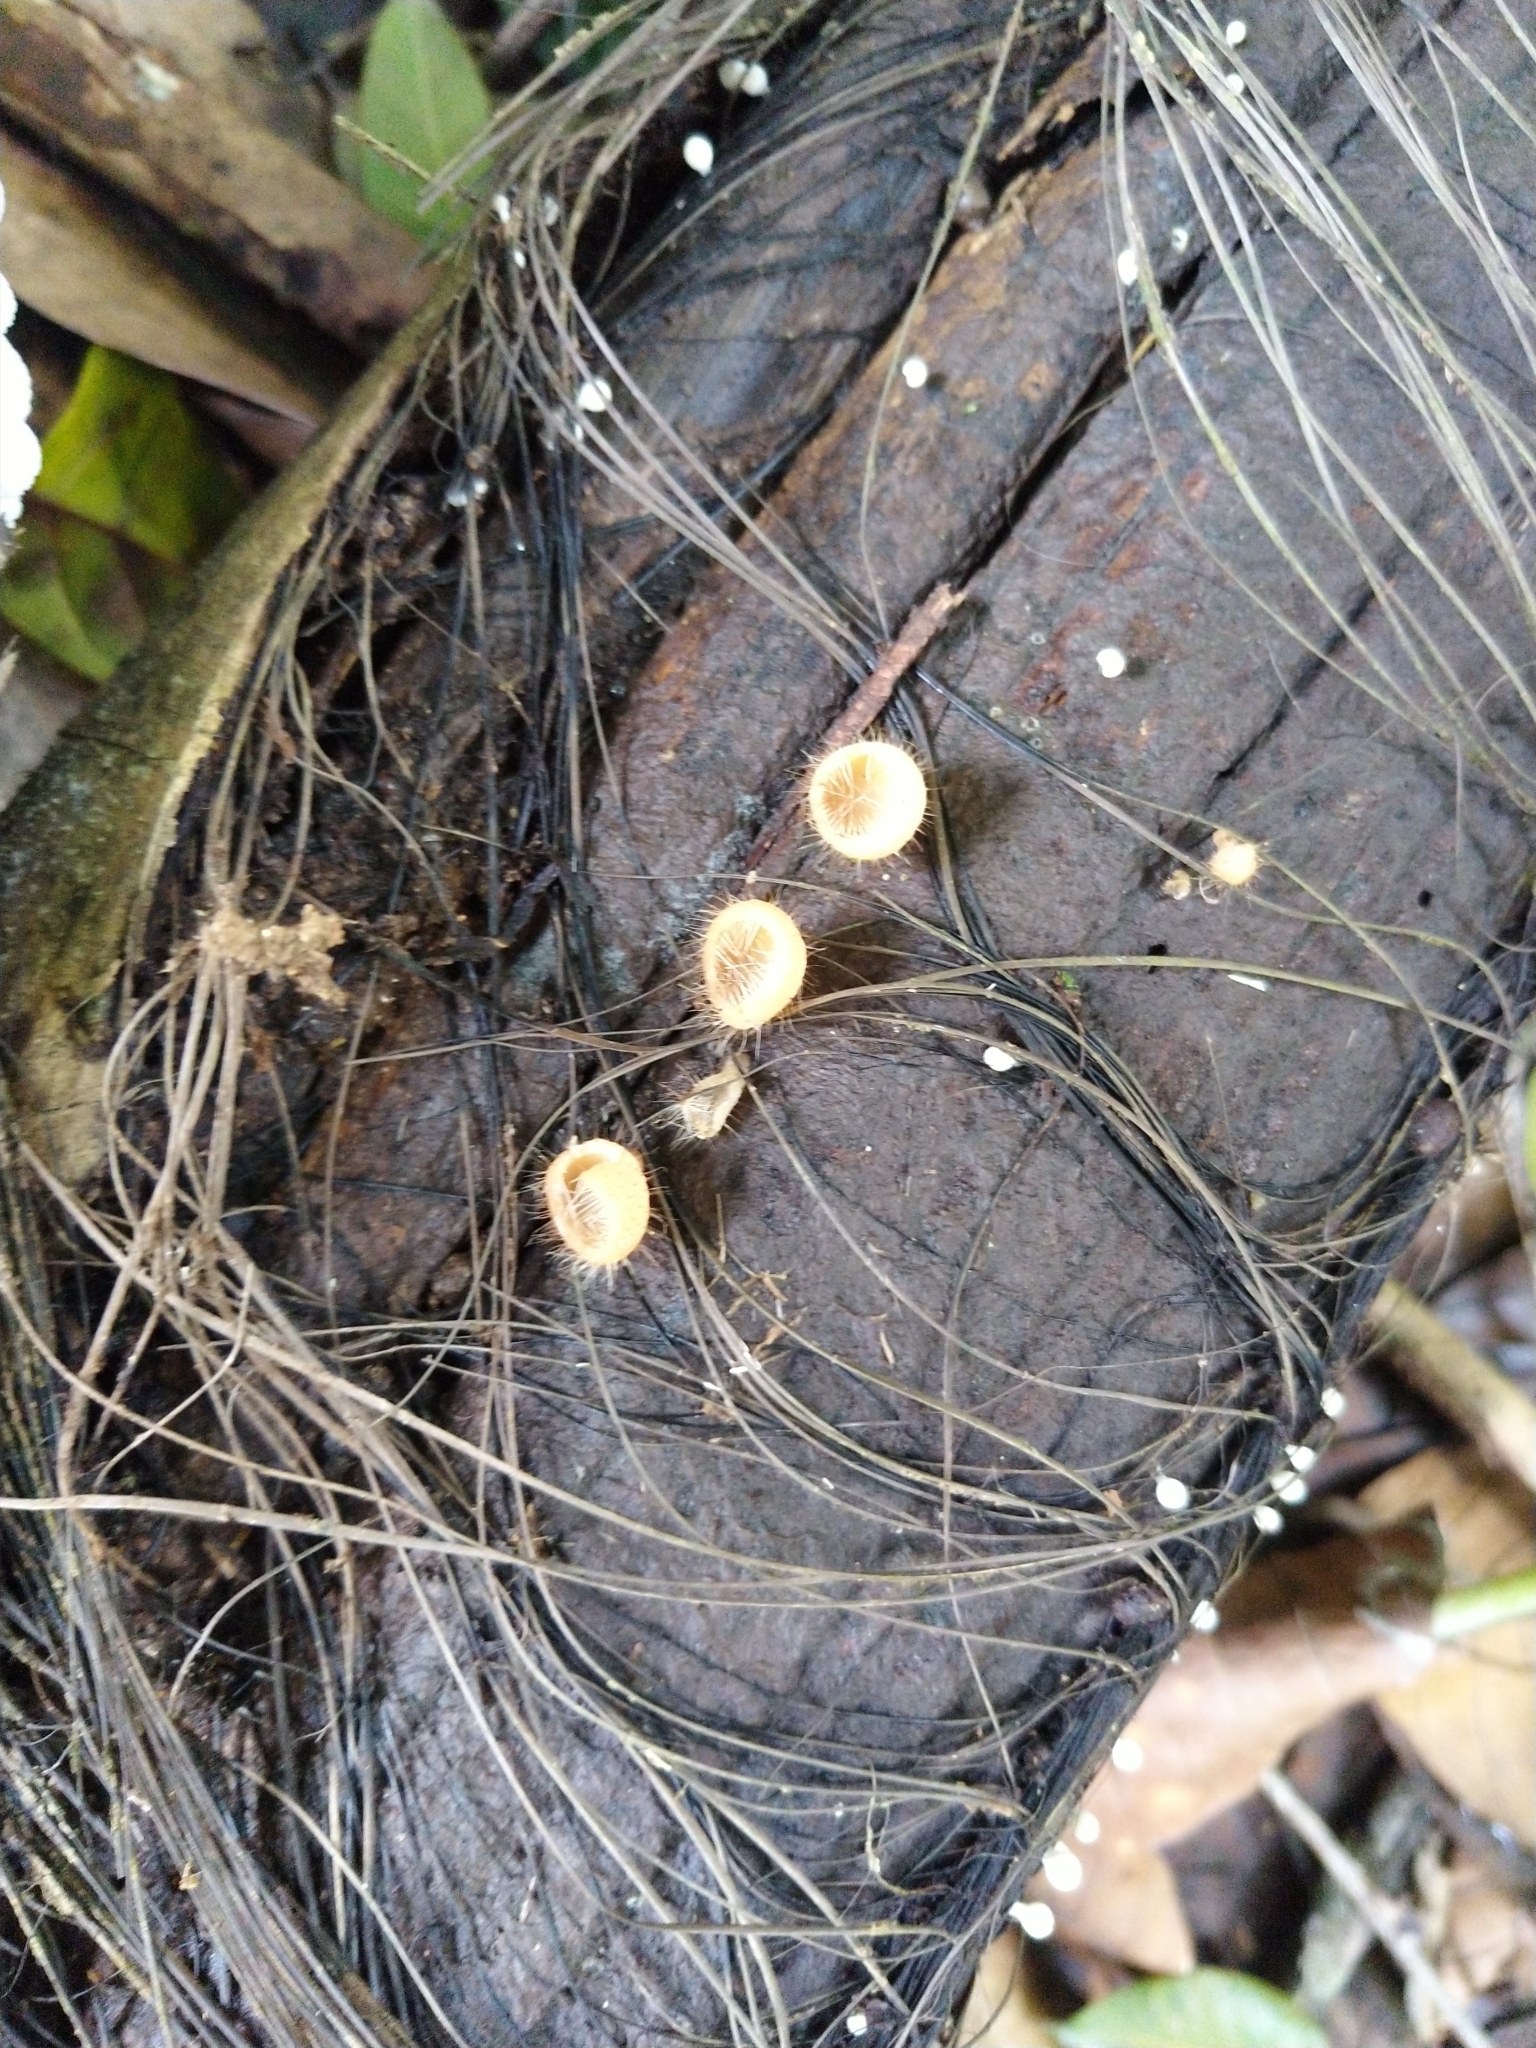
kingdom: Fungi
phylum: Ascomycota
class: Pezizomycetes
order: Pezizales
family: Sarcoscyphaceae
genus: Cookeina
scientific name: Cookeina tricholoma
